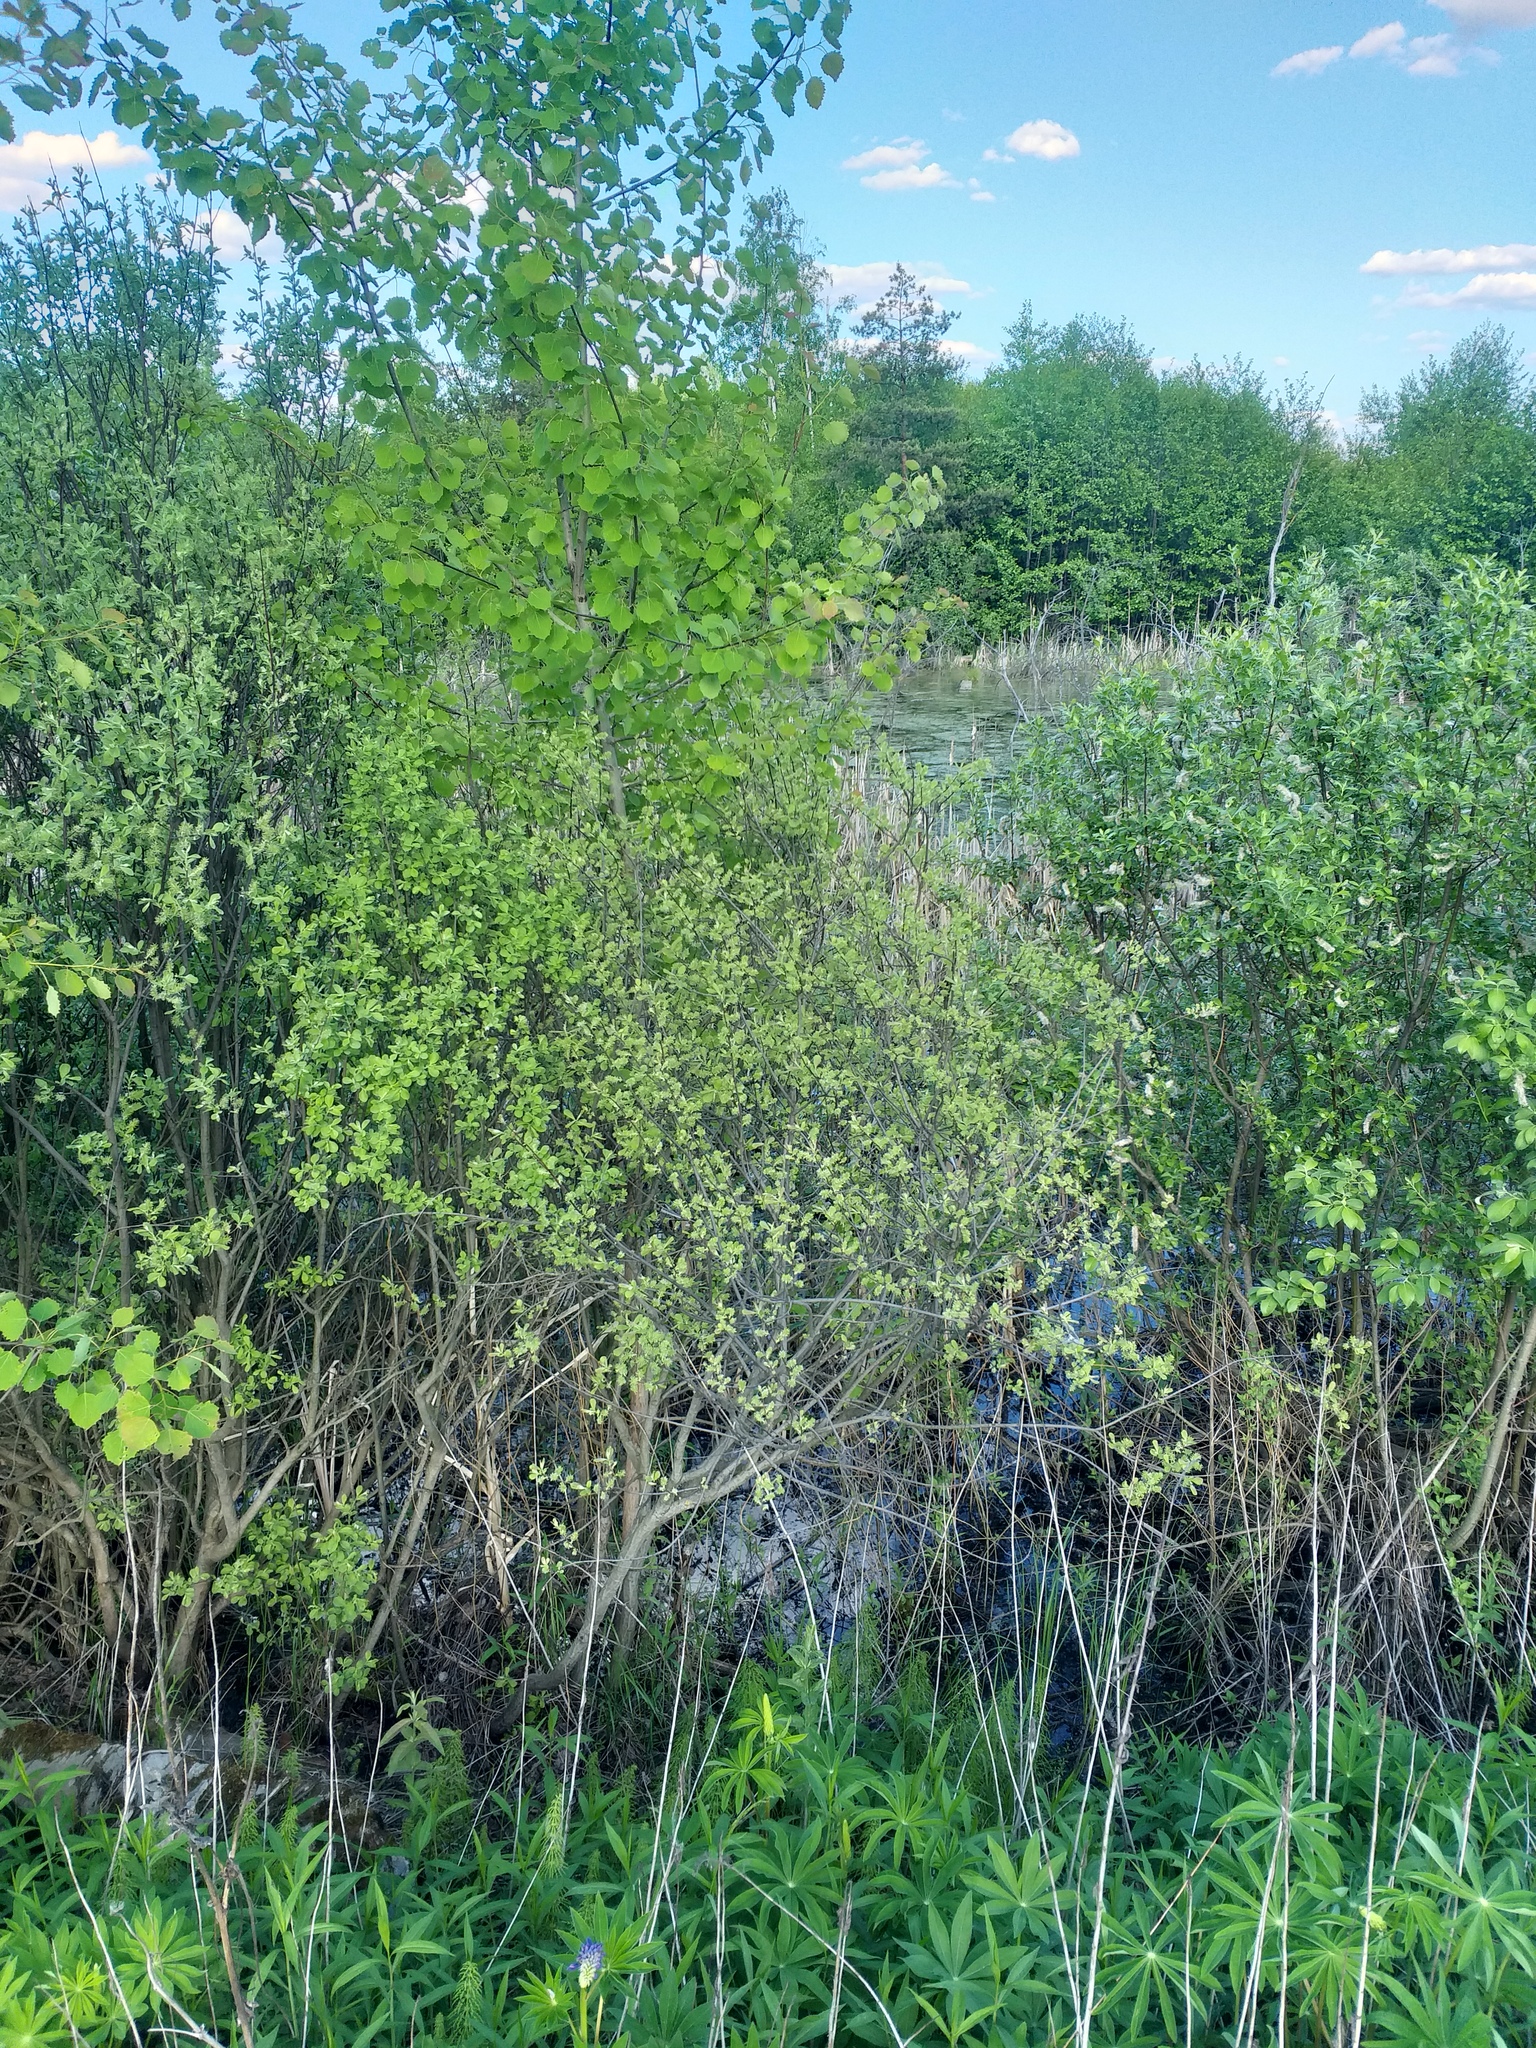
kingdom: Plantae
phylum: Tracheophyta
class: Magnoliopsida
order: Malpighiales
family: Salicaceae
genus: Salix
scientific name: Salix aurita
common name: Eared willow
